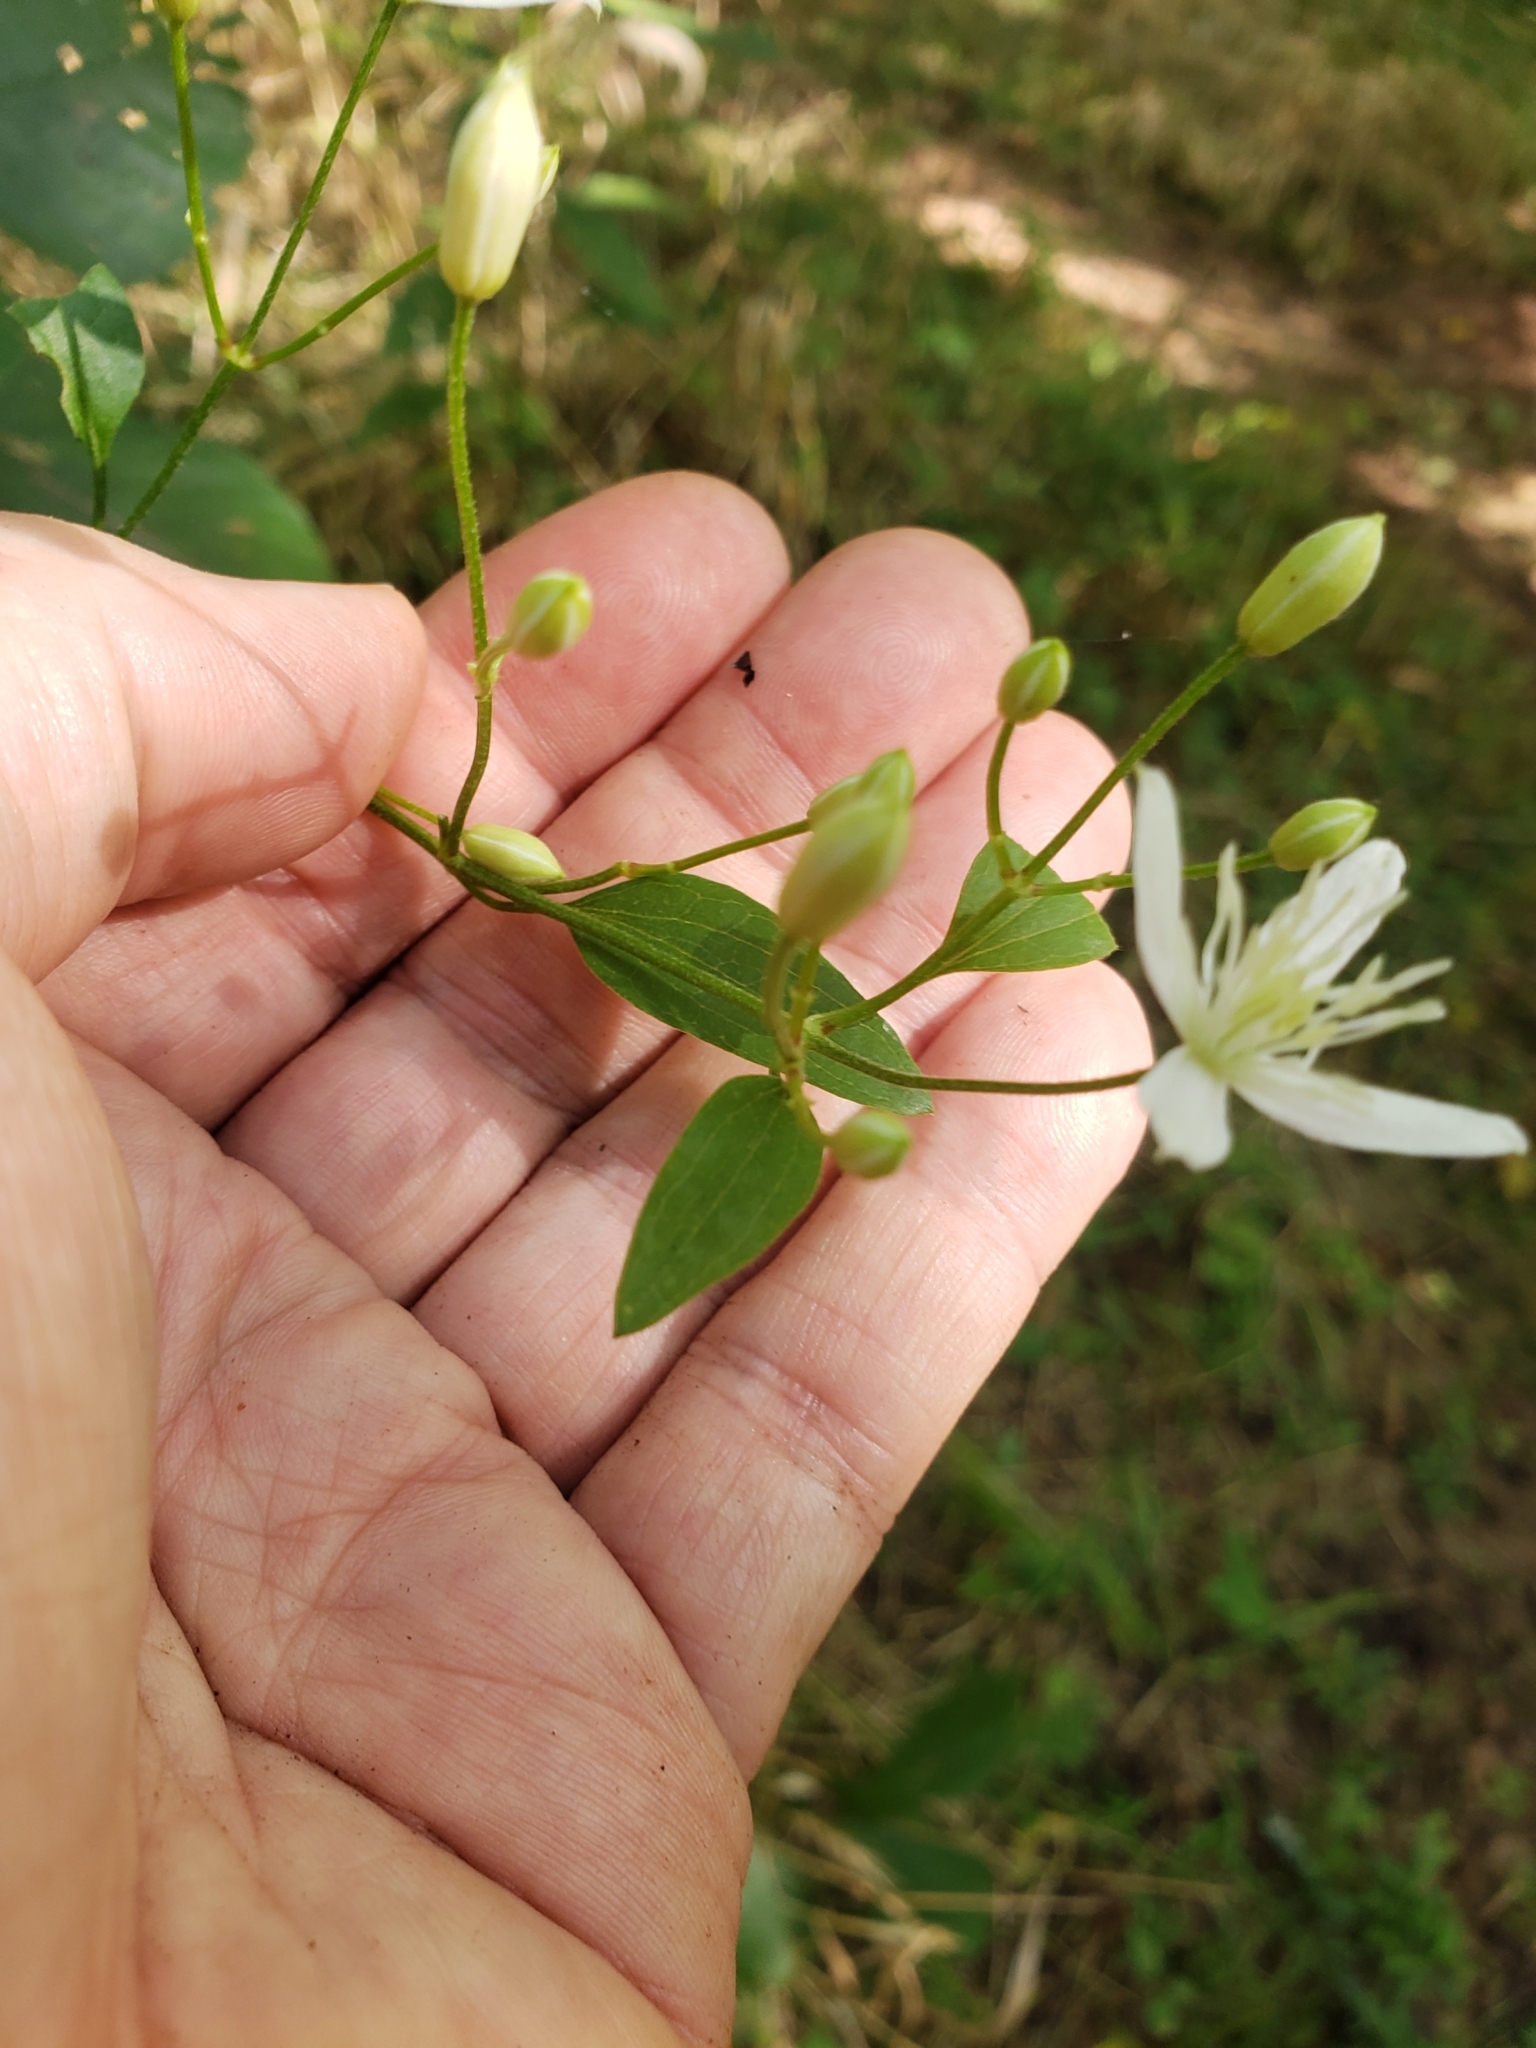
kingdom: Plantae
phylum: Tracheophyta
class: Magnoliopsida
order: Ranunculales
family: Ranunculaceae
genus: Clematis
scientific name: Clematis terniflora
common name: Sweet autumn clematis
